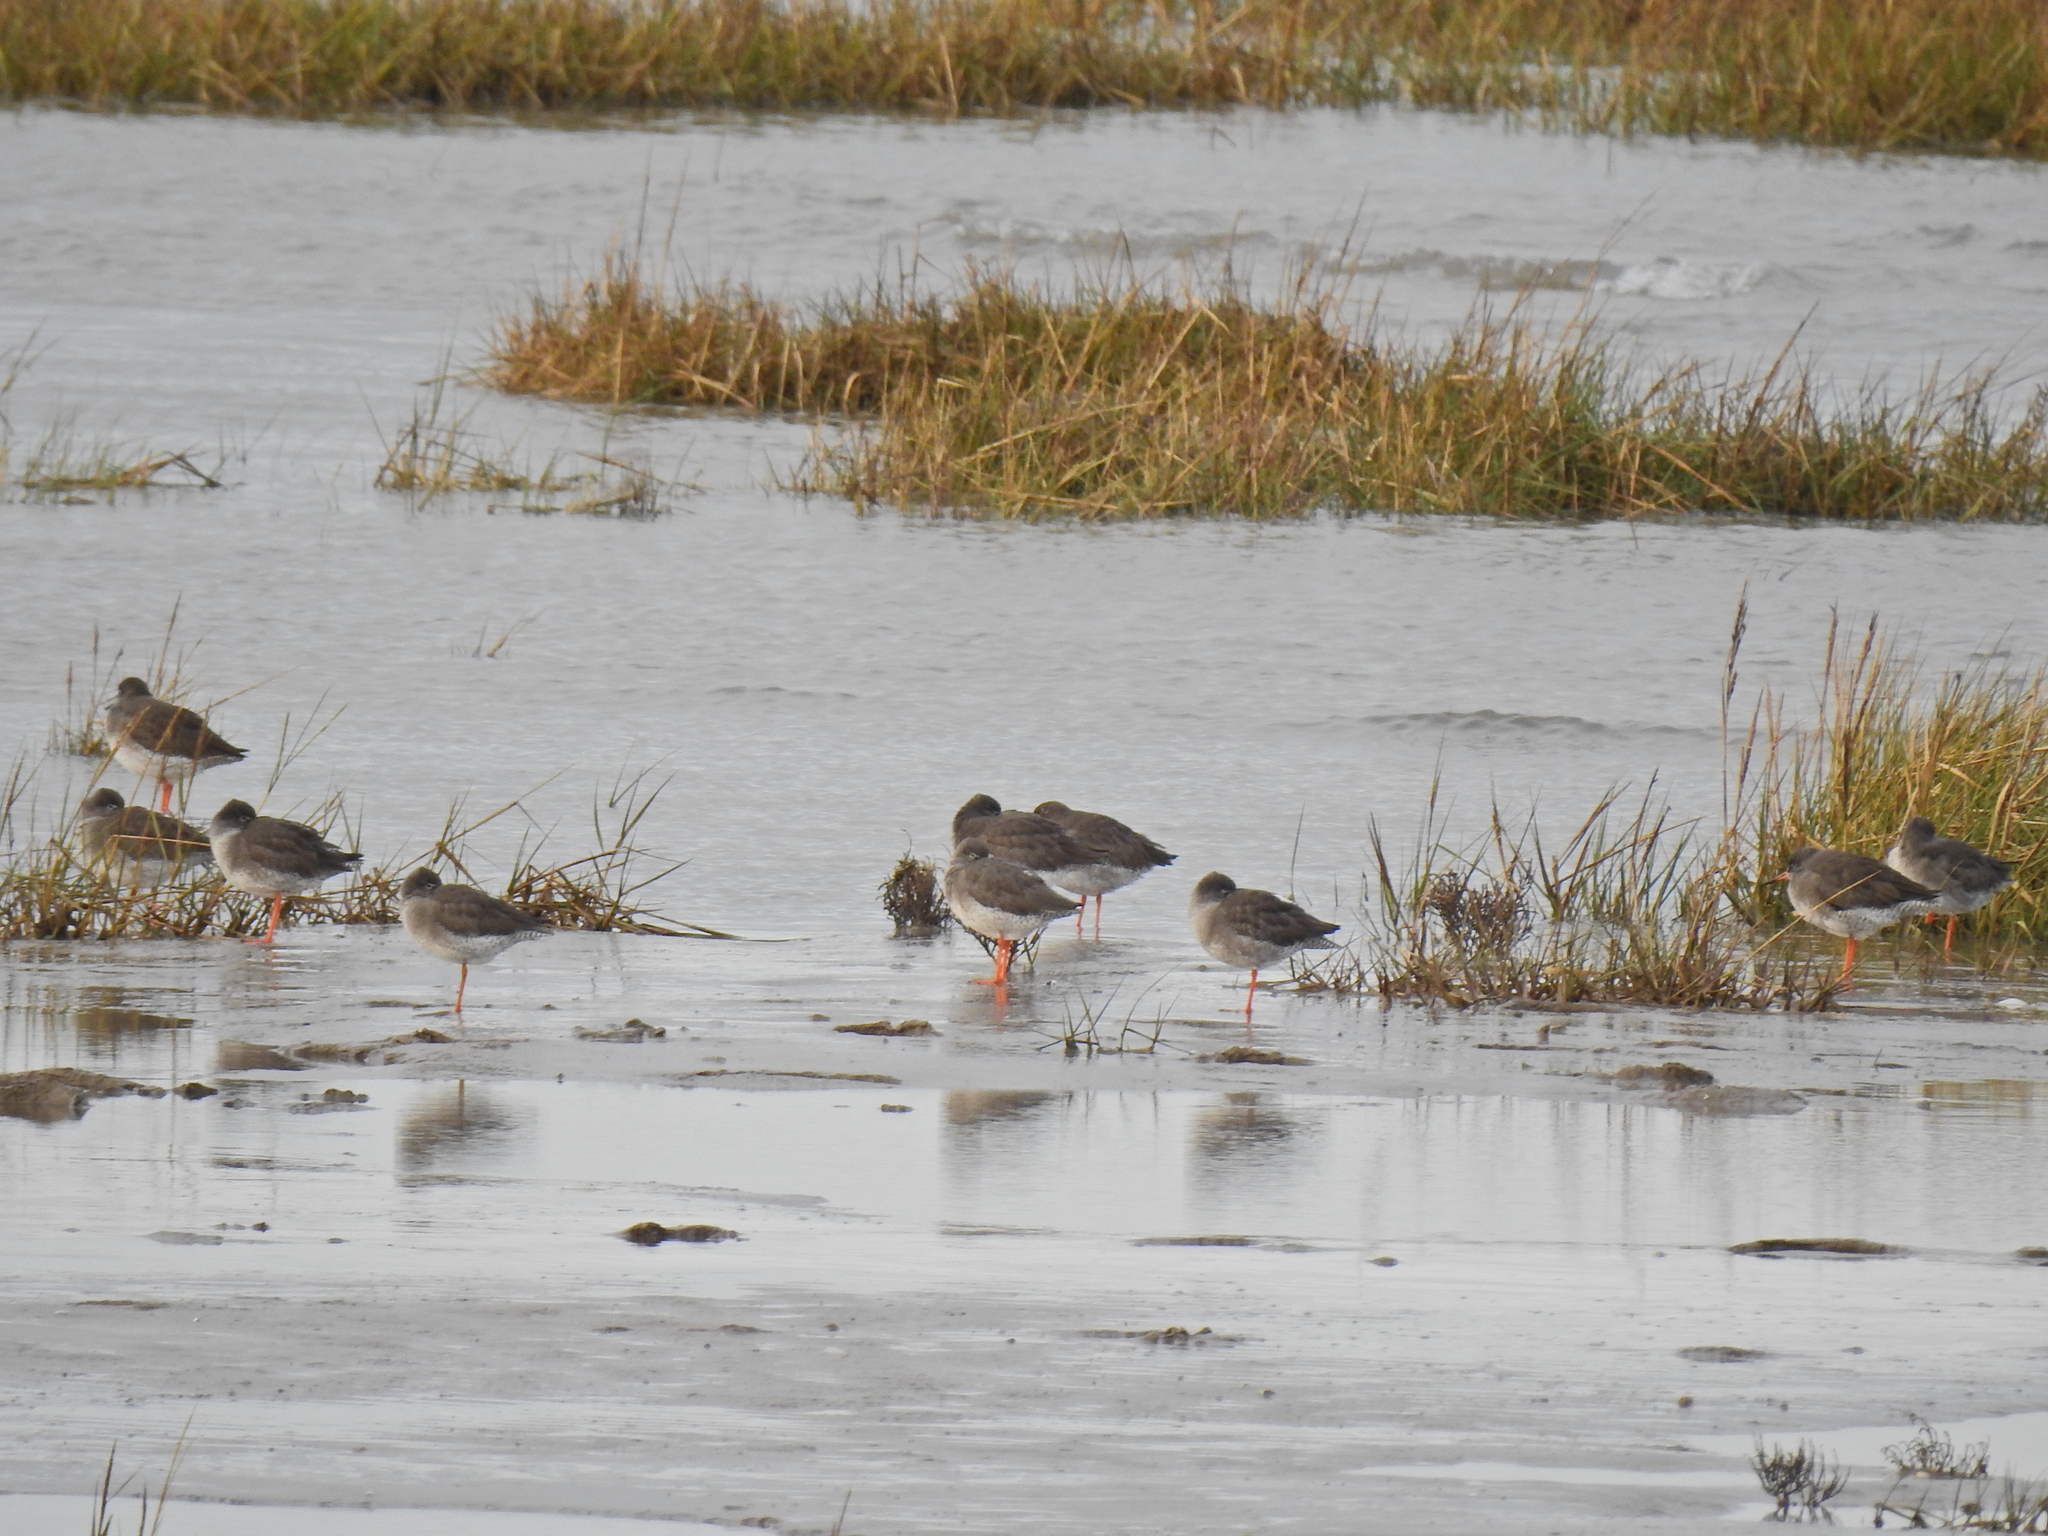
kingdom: Animalia
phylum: Chordata
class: Aves
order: Charadriiformes
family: Scolopacidae
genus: Tringa
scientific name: Tringa totanus
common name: Common redshank
